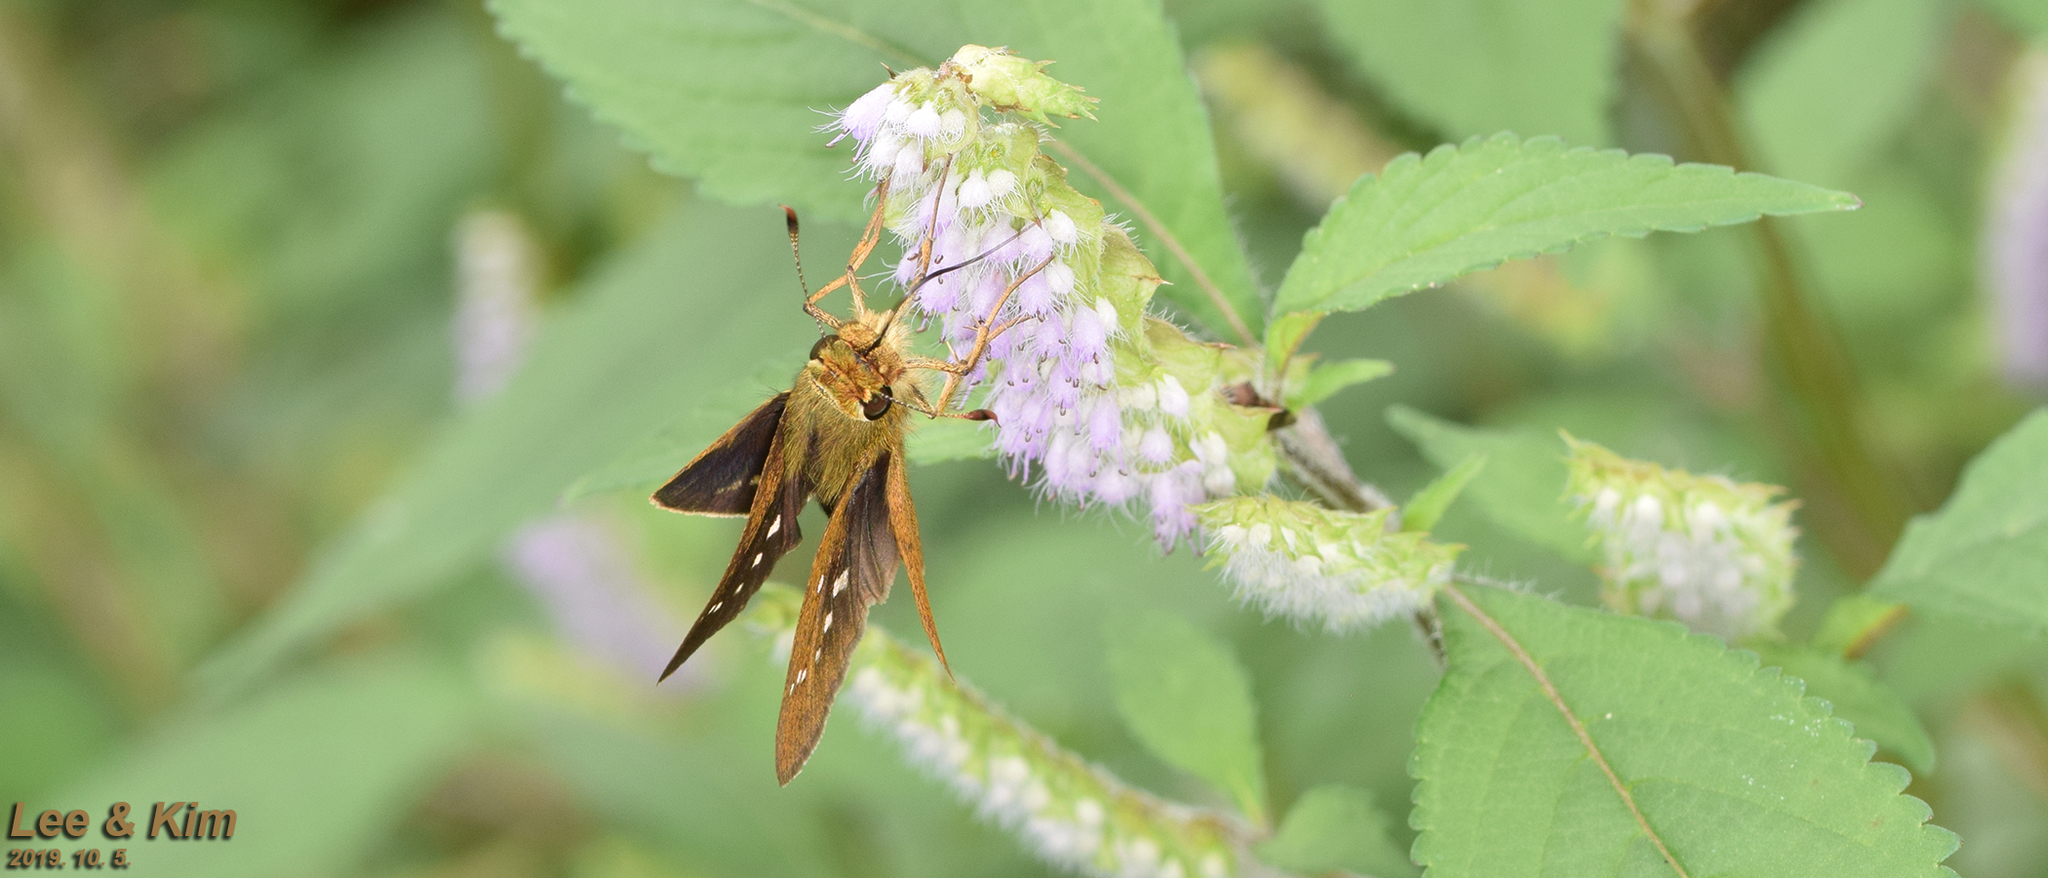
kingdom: Animalia
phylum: Arthropoda
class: Insecta
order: Lepidoptera
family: Hesperiidae
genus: Parnara
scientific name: Parnara guttatus
